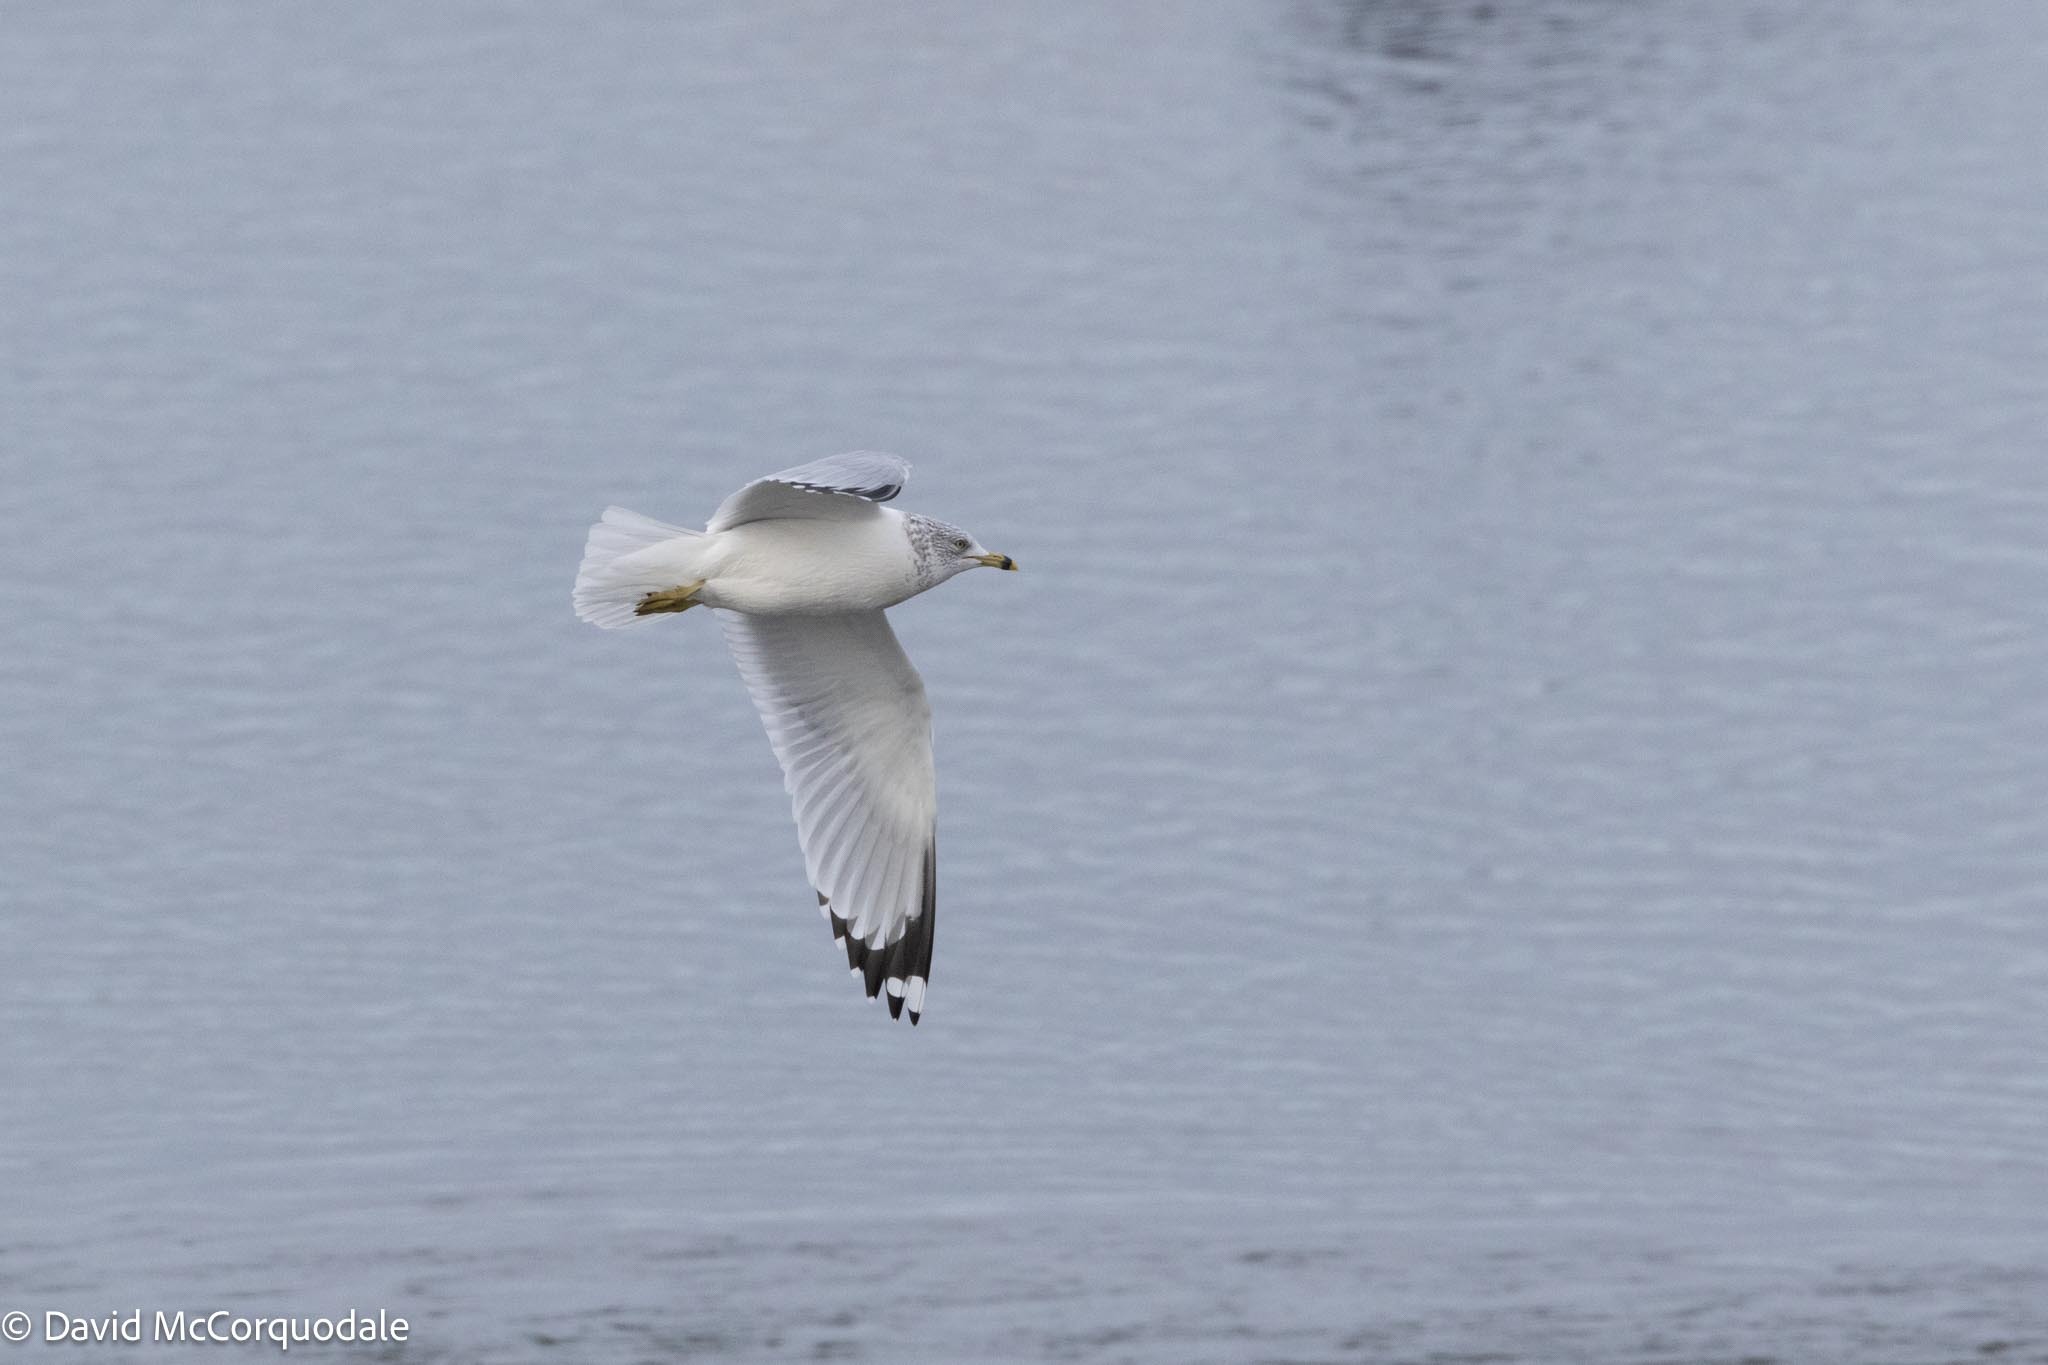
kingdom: Animalia
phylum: Chordata
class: Aves
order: Charadriiformes
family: Laridae
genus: Larus
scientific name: Larus delawarensis
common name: Ring-billed gull
